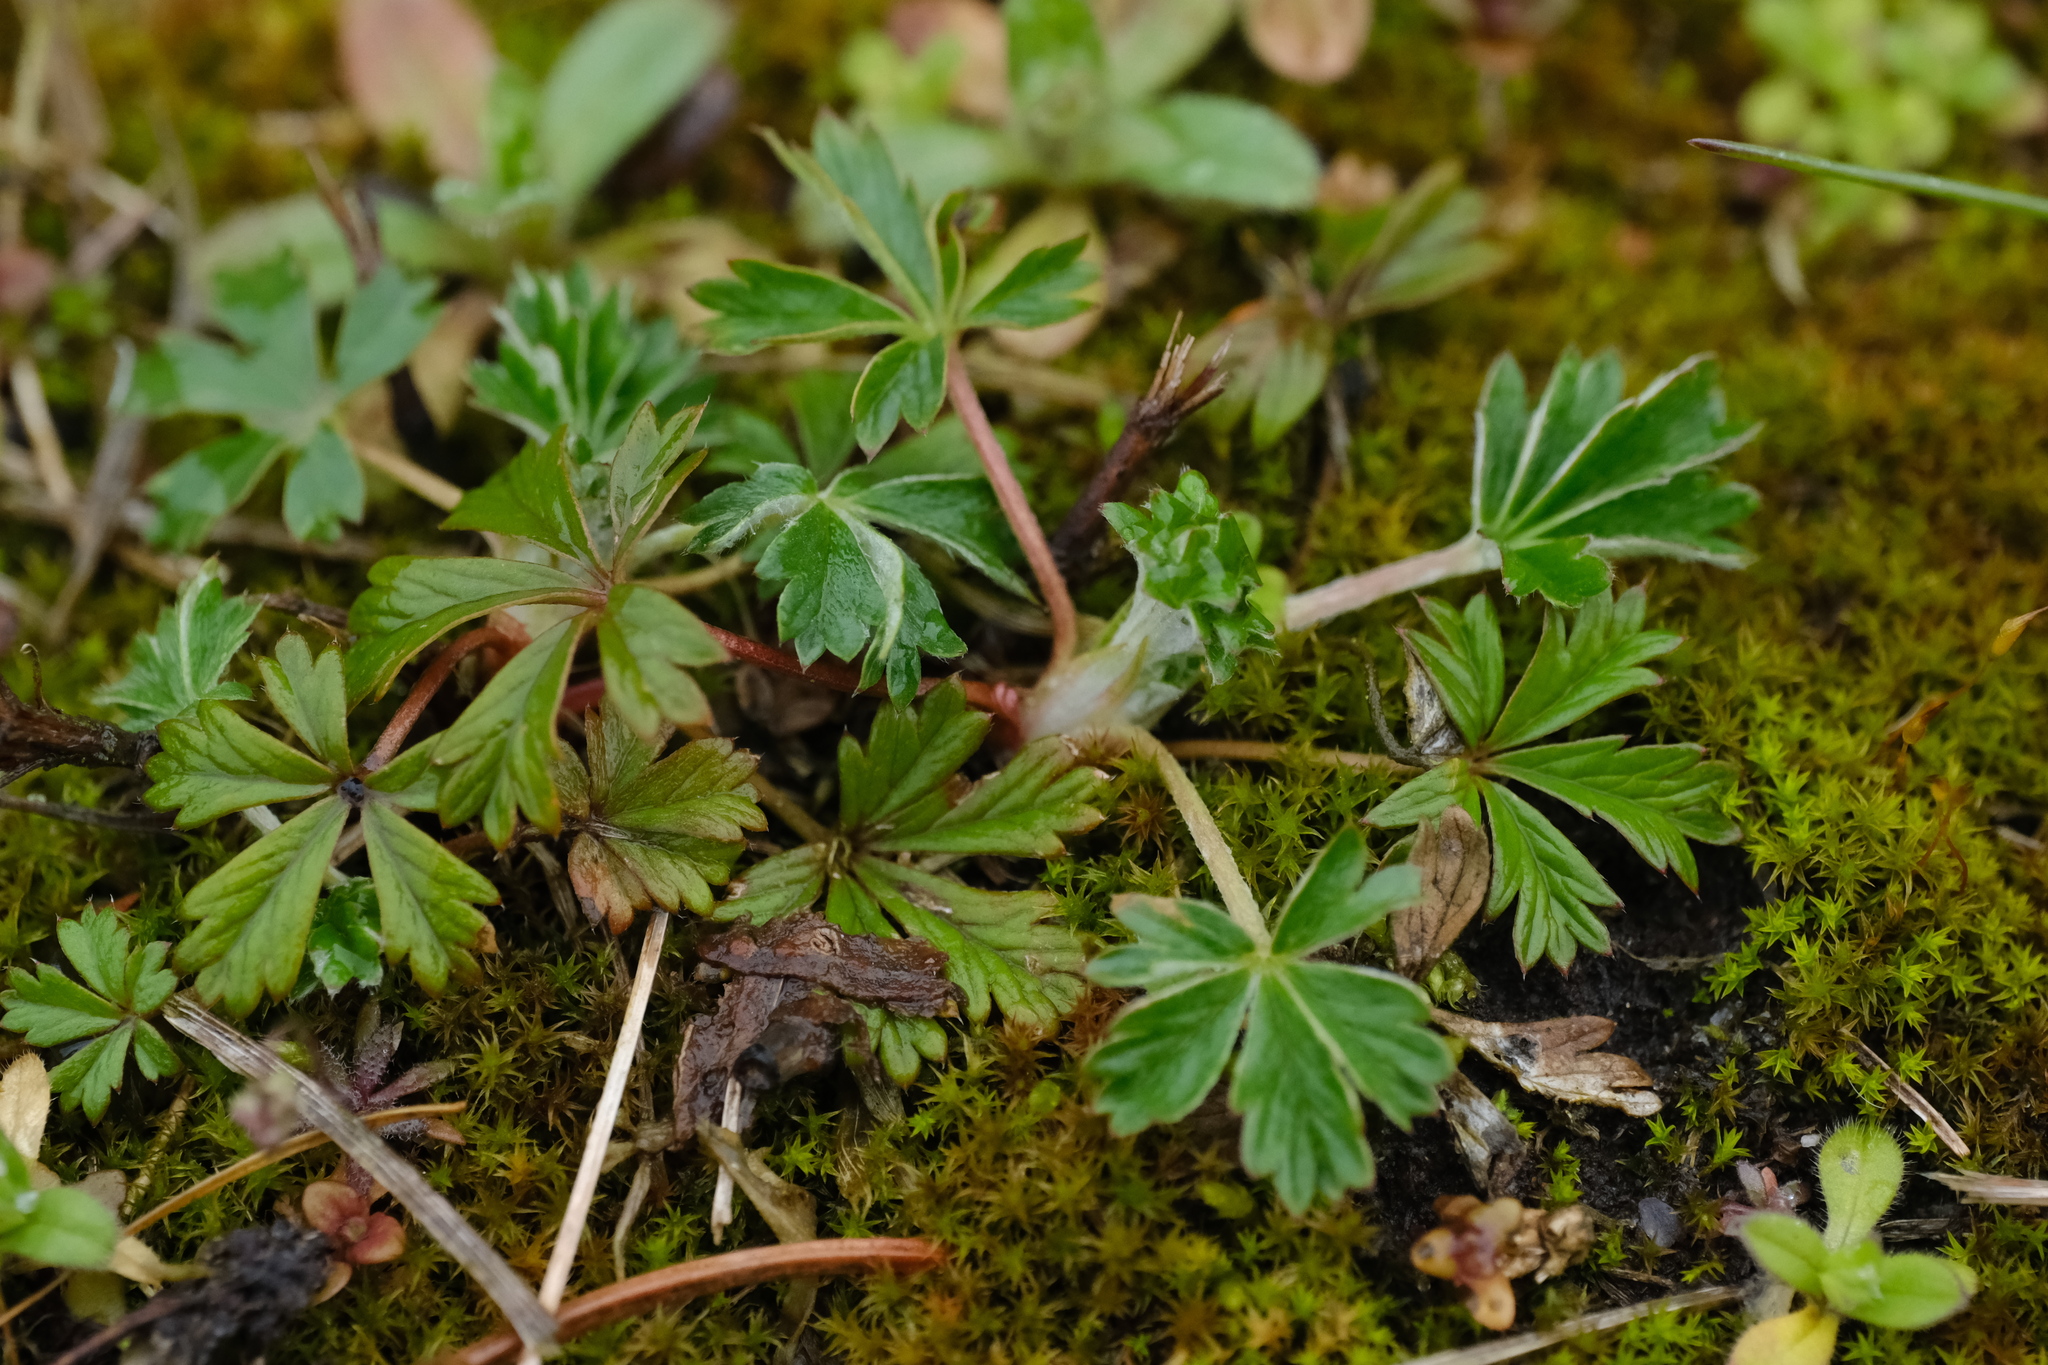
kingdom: Plantae
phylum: Tracheophyta
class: Magnoliopsida
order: Rosales
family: Rosaceae
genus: Potentilla
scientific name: Potentilla argentea
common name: Hoary cinquefoil
